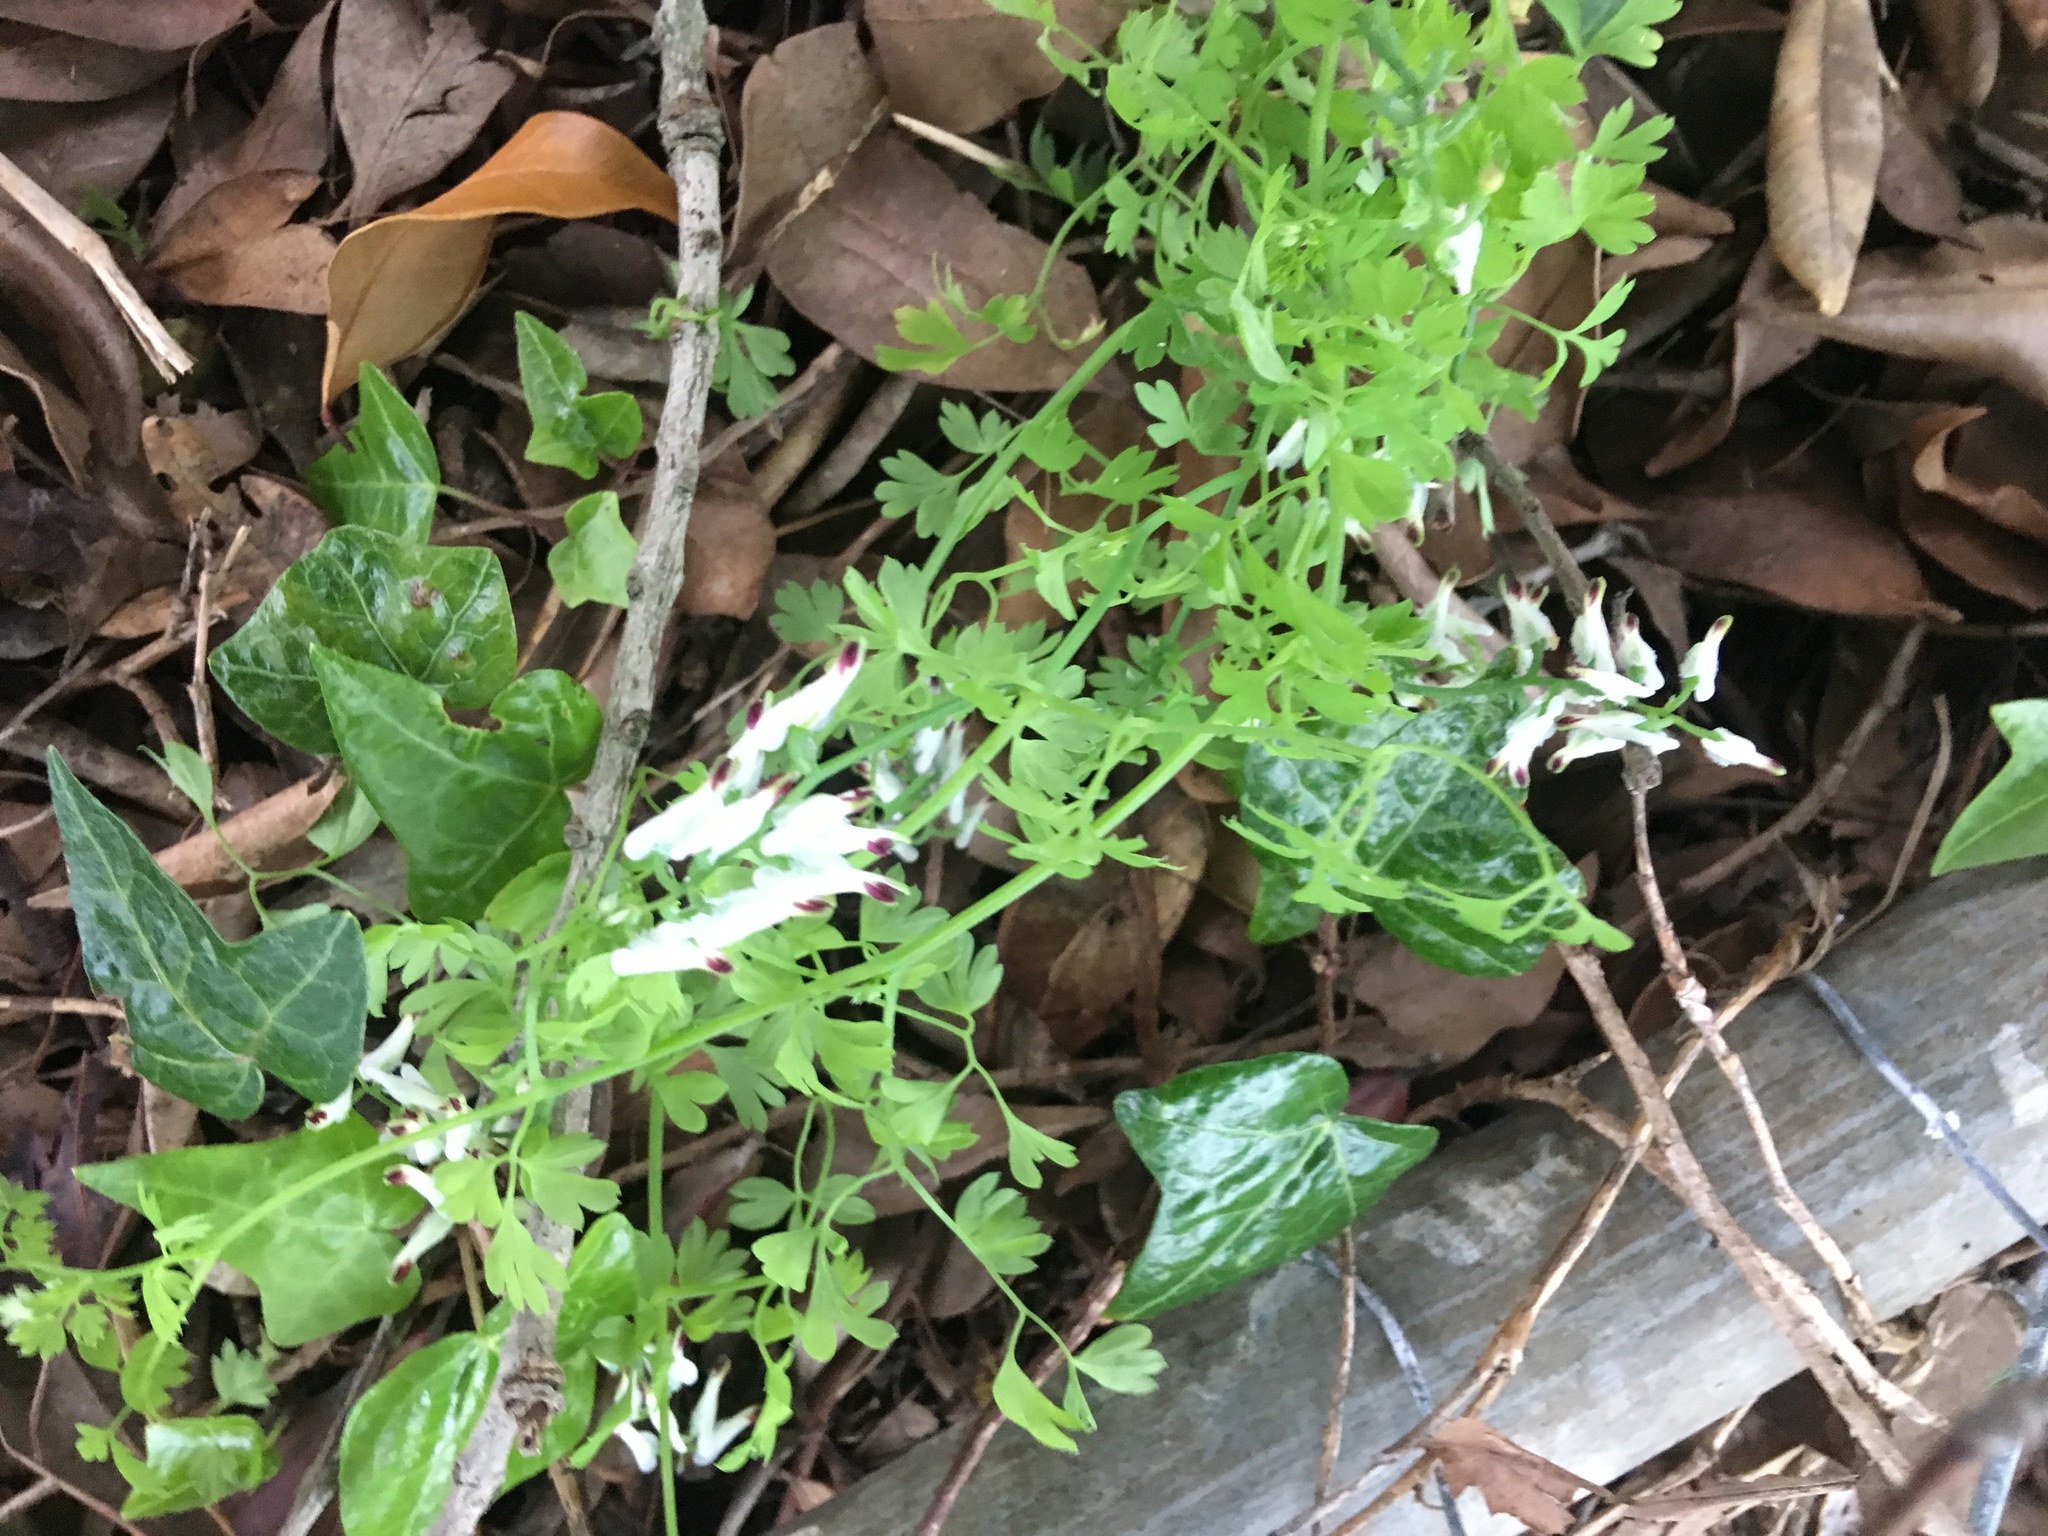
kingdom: Plantae
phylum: Tracheophyta
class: Magnoliopsida
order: Ranunculales
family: Papaveraceae
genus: Fumaria
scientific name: Fumaria capreolata
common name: White ramping-fumitory
